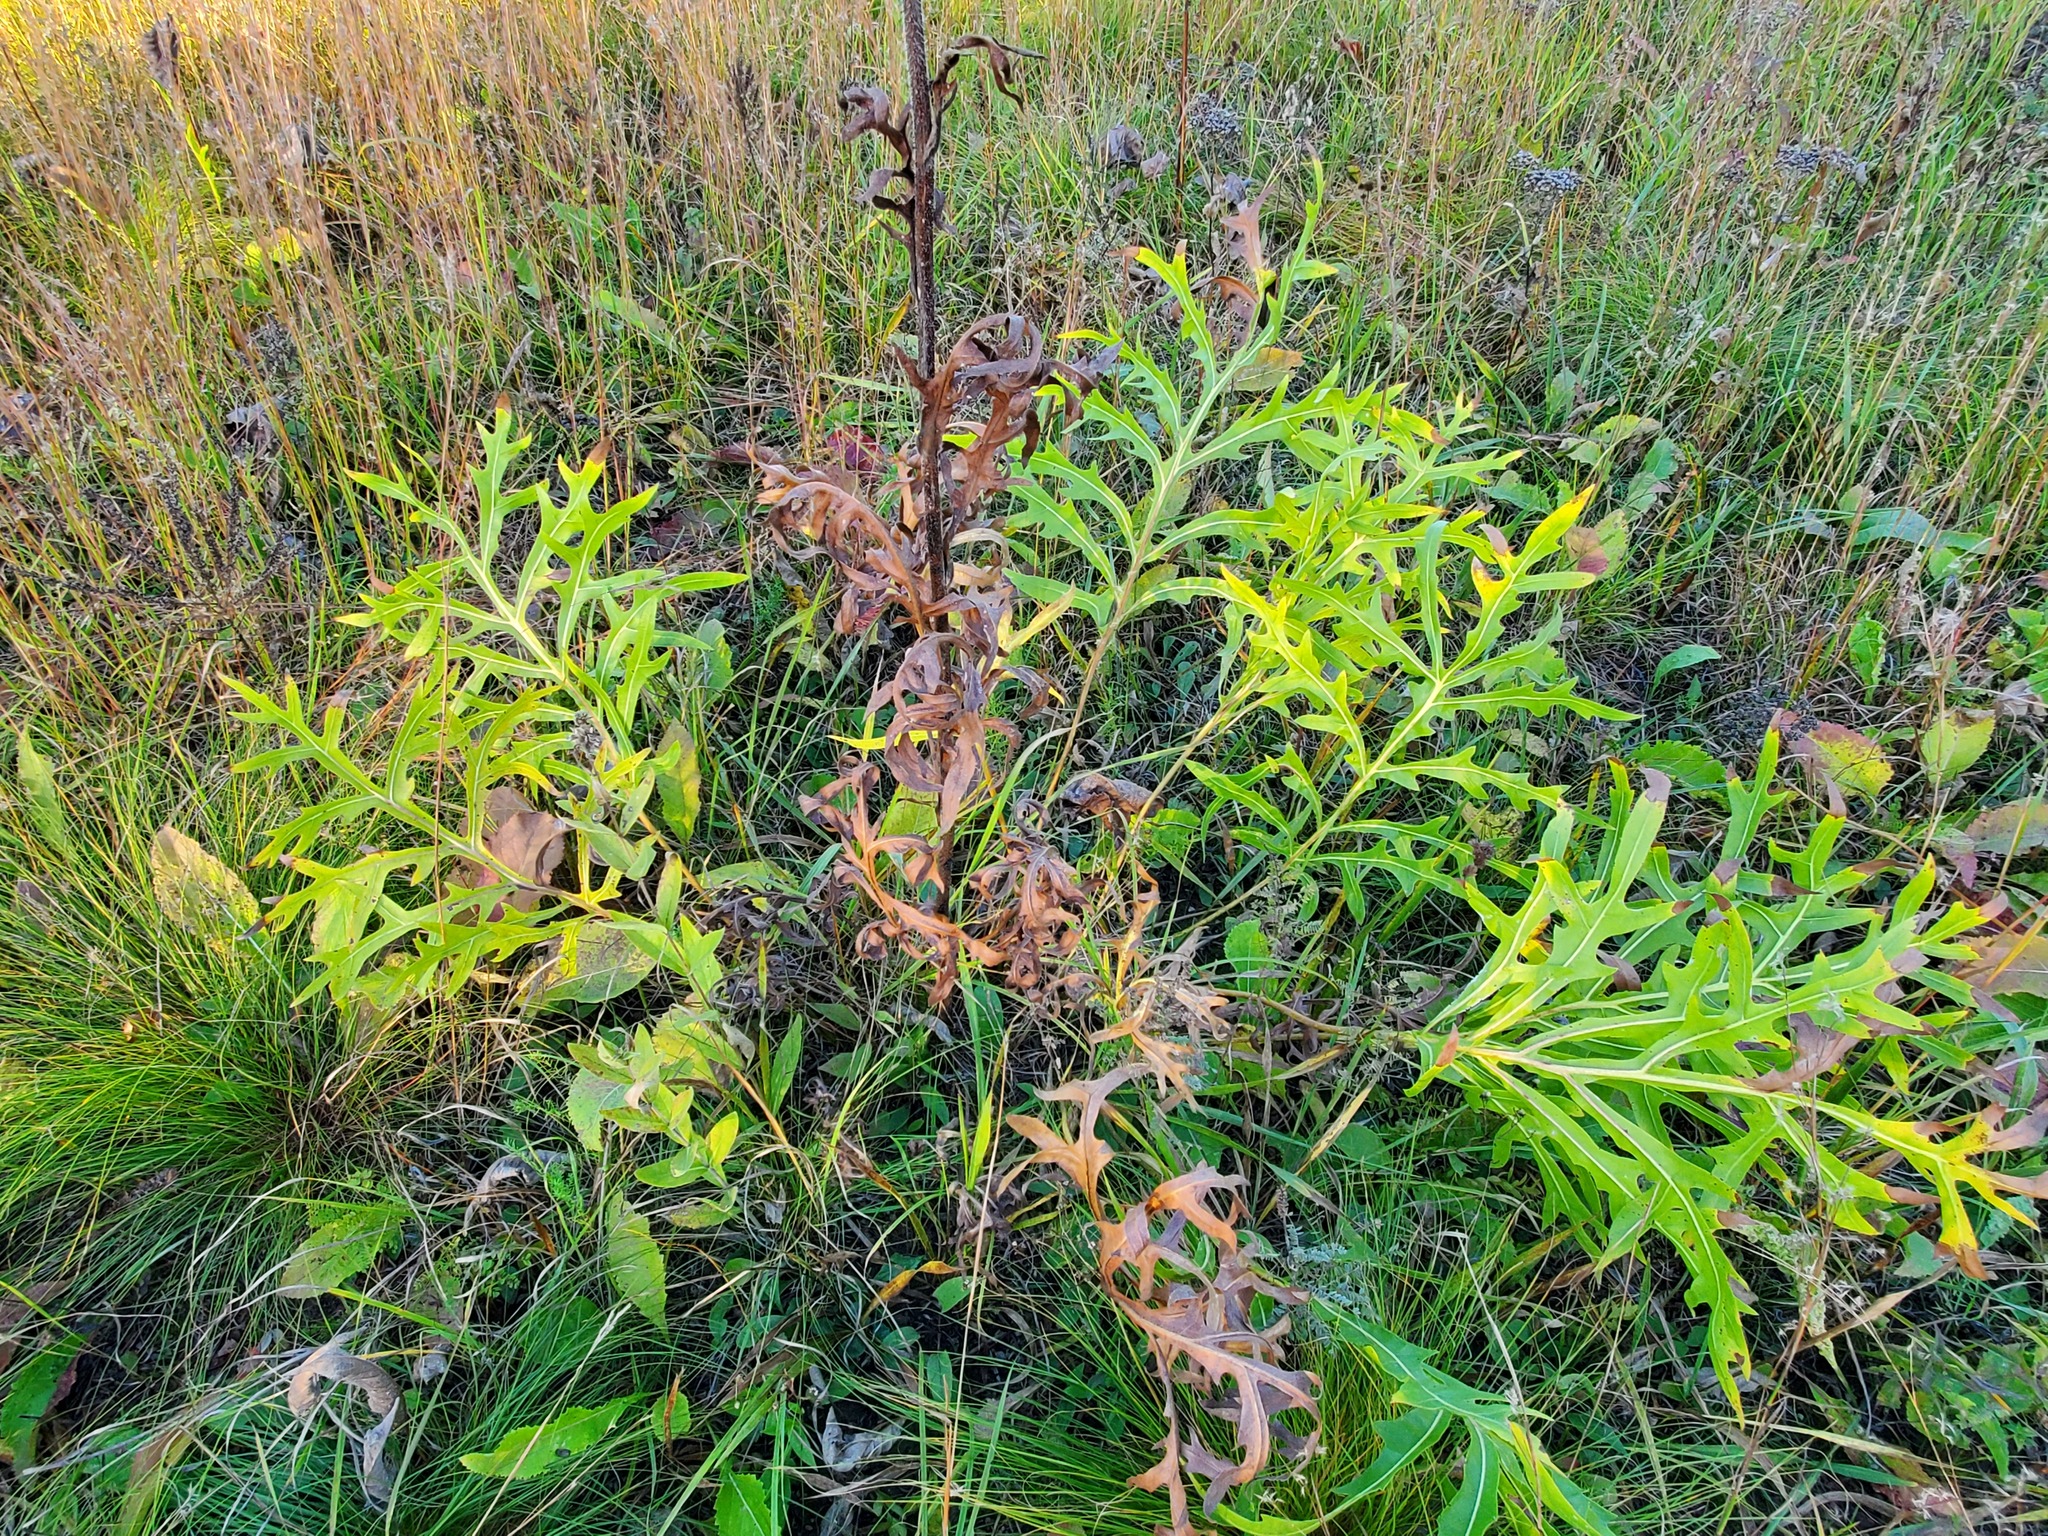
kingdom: Plantae
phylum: Tracheophyta
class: Magnoliopsida
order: Asterales
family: Asteraceae
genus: Silphium
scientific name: Silphium laciniatum
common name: Polarplant
